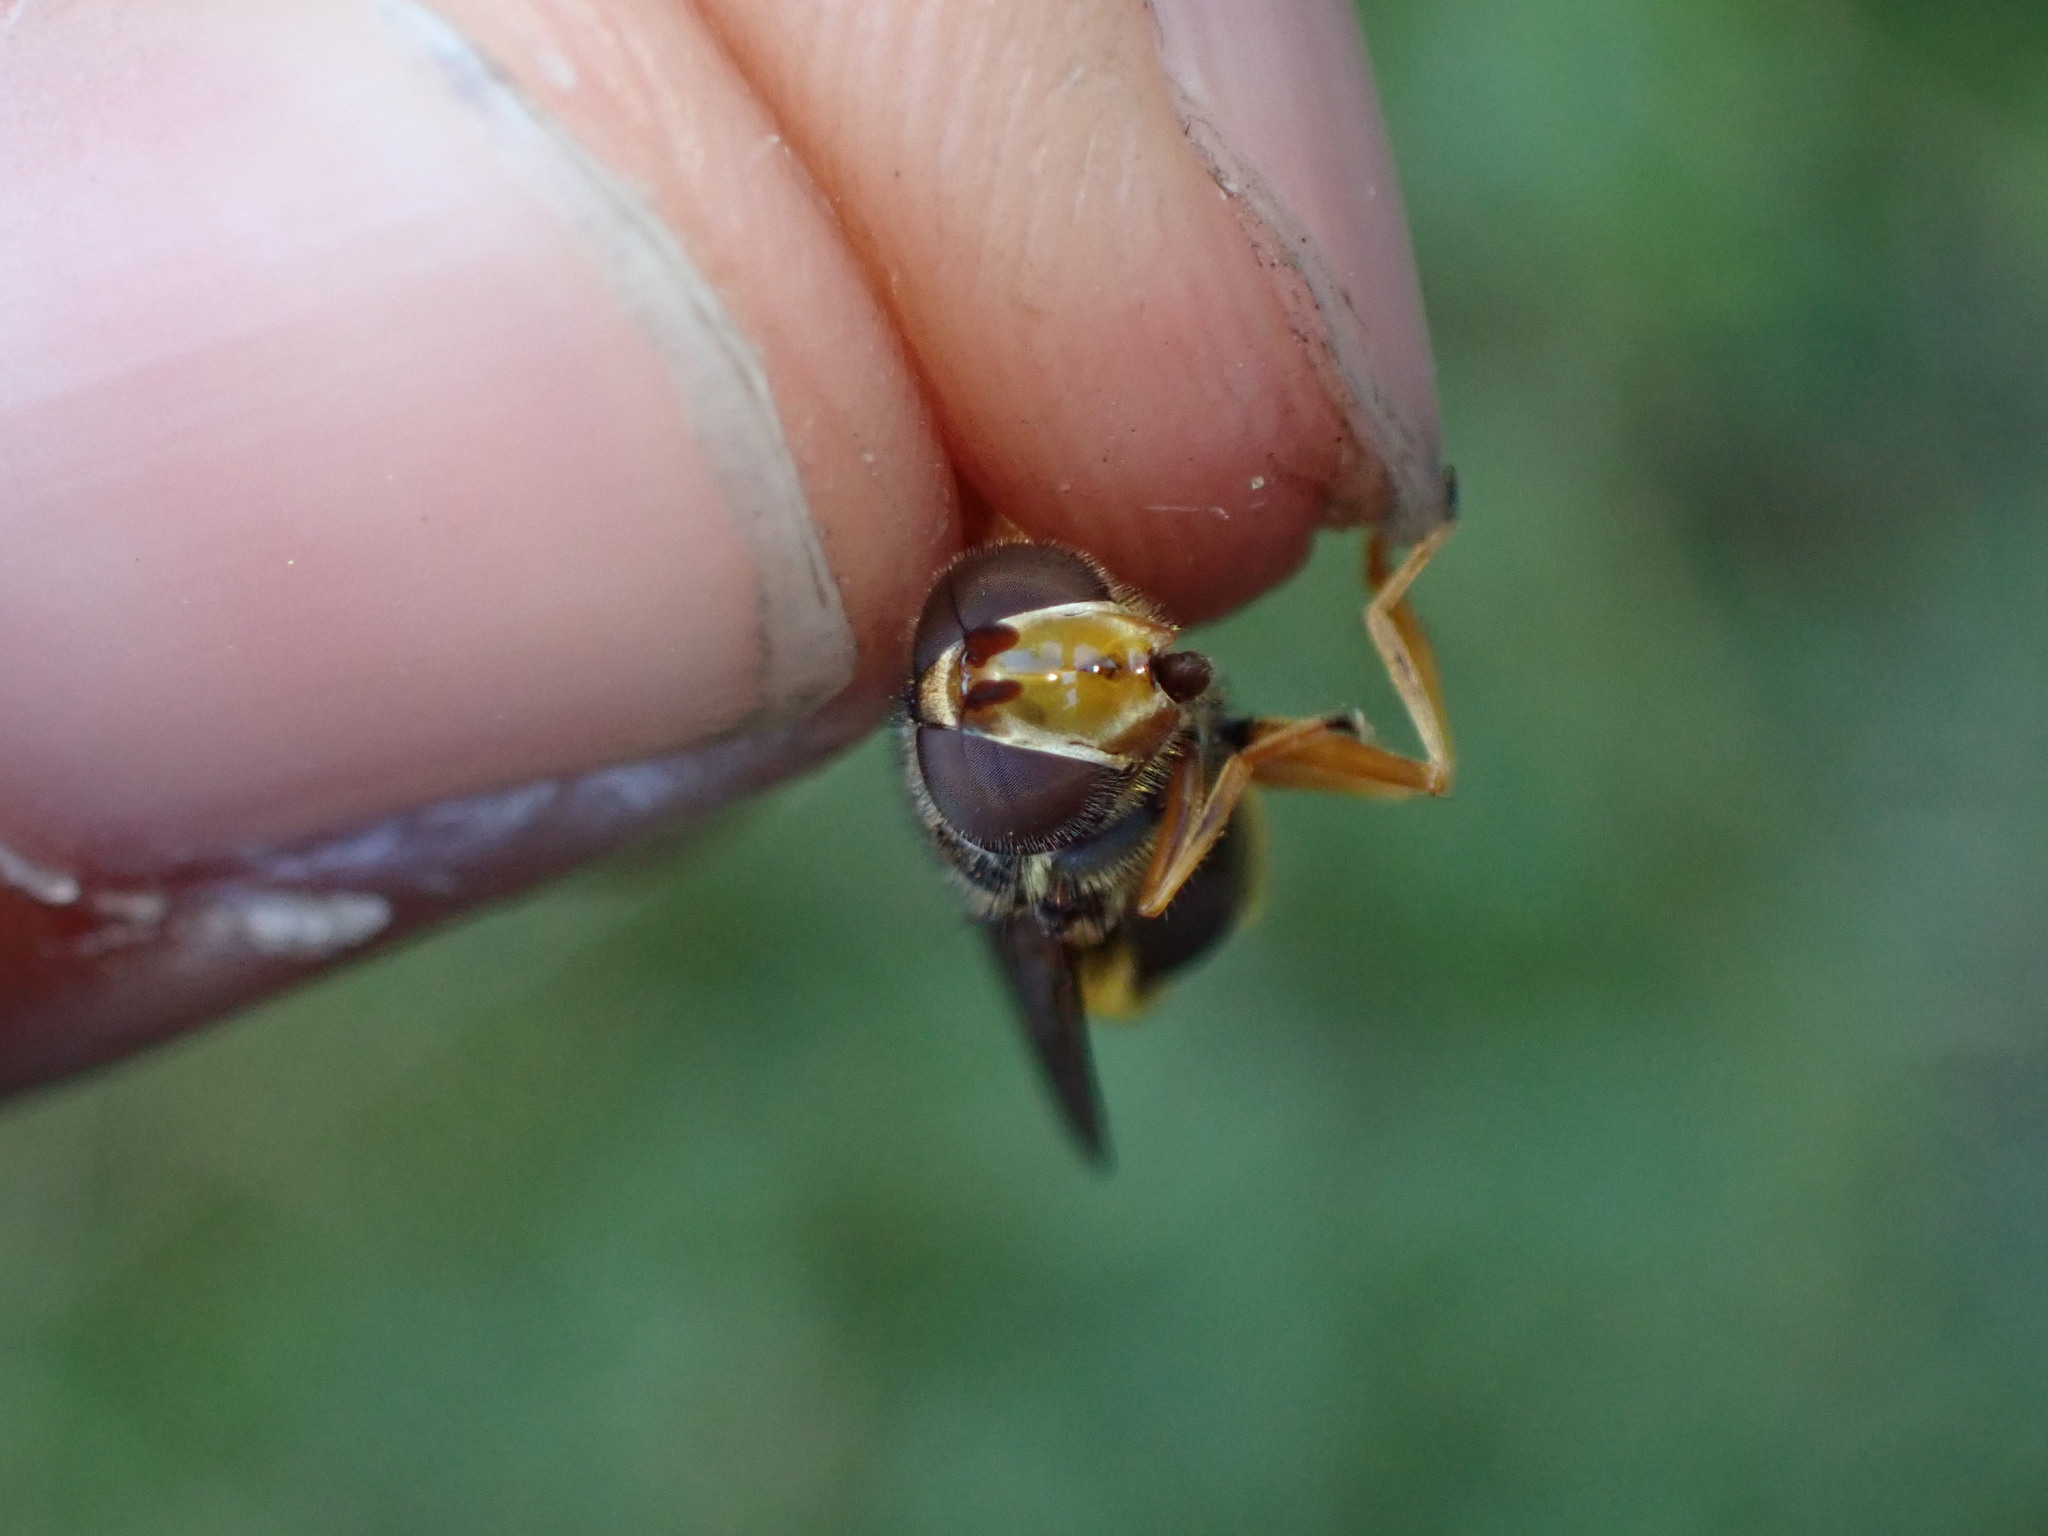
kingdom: Animalia
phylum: Arthropoda
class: Insecta
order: Diptera
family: Syrphidae
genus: Ferdinandea
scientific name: Ferdinandea cuprea
